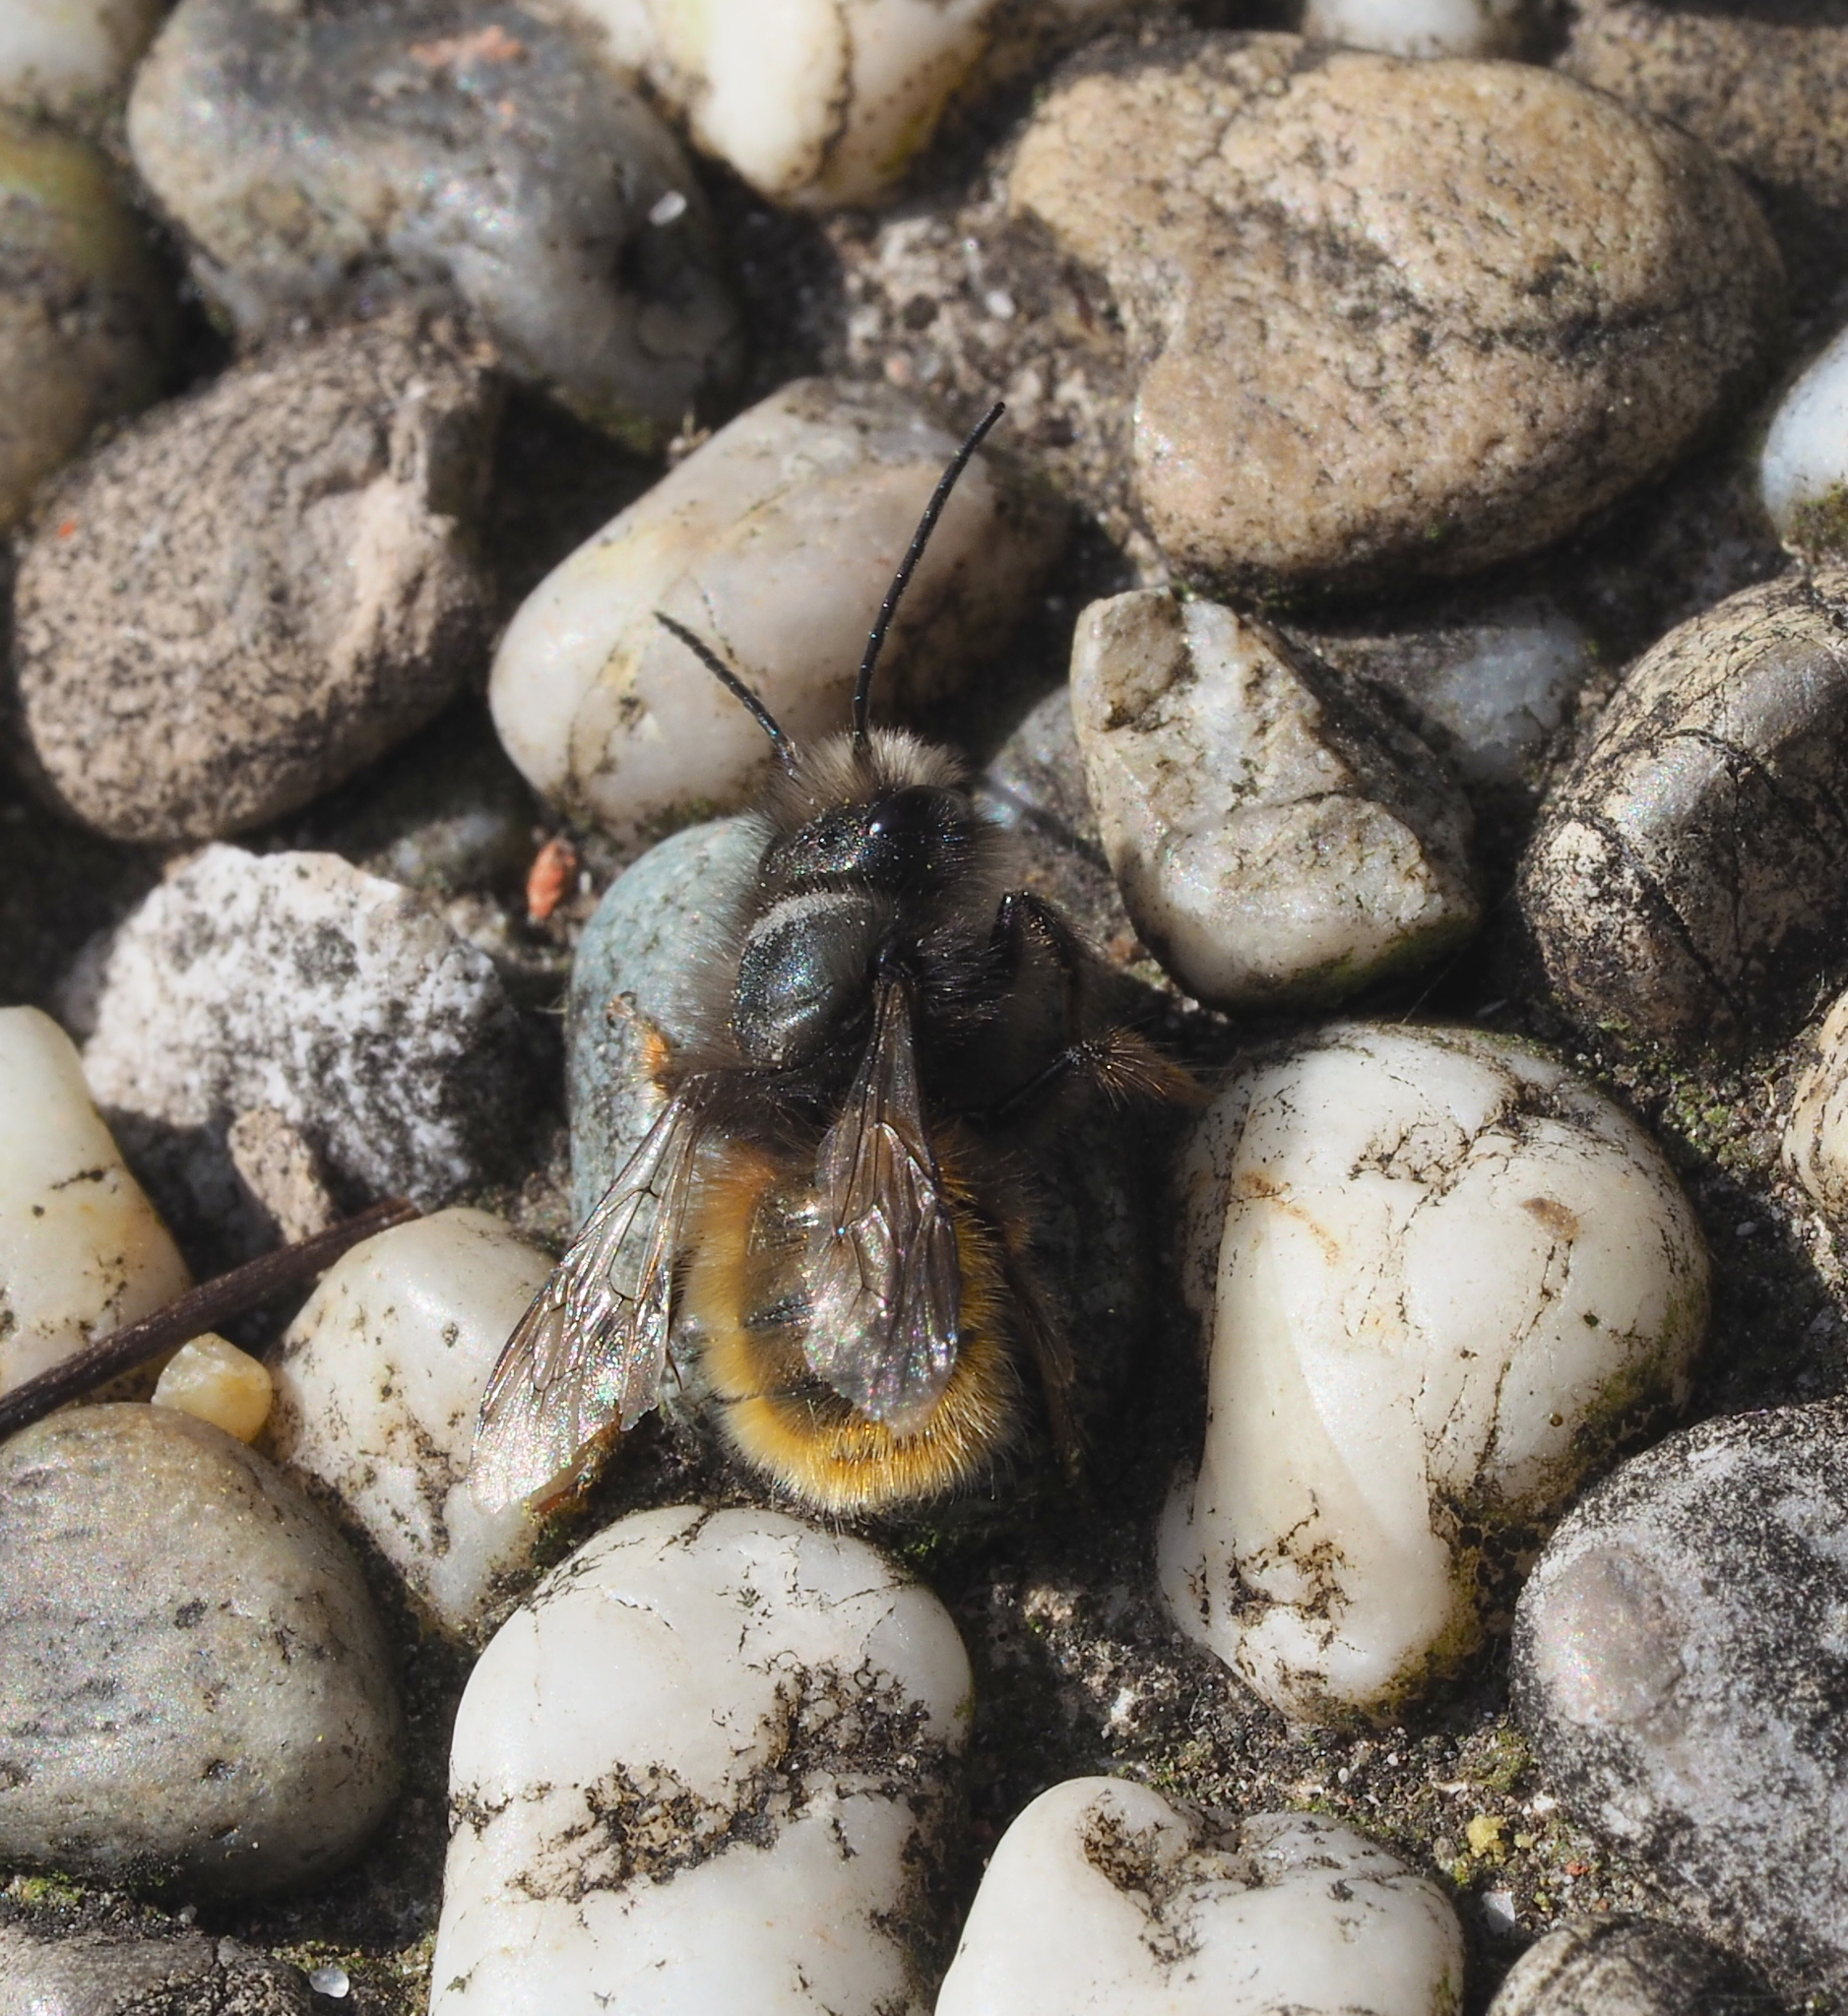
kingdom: Animalia
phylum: Arthropoda
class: Insecta
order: Hymenoptera
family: Megachilidae
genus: Osmia
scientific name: Osmia cornuta
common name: Mason bee
